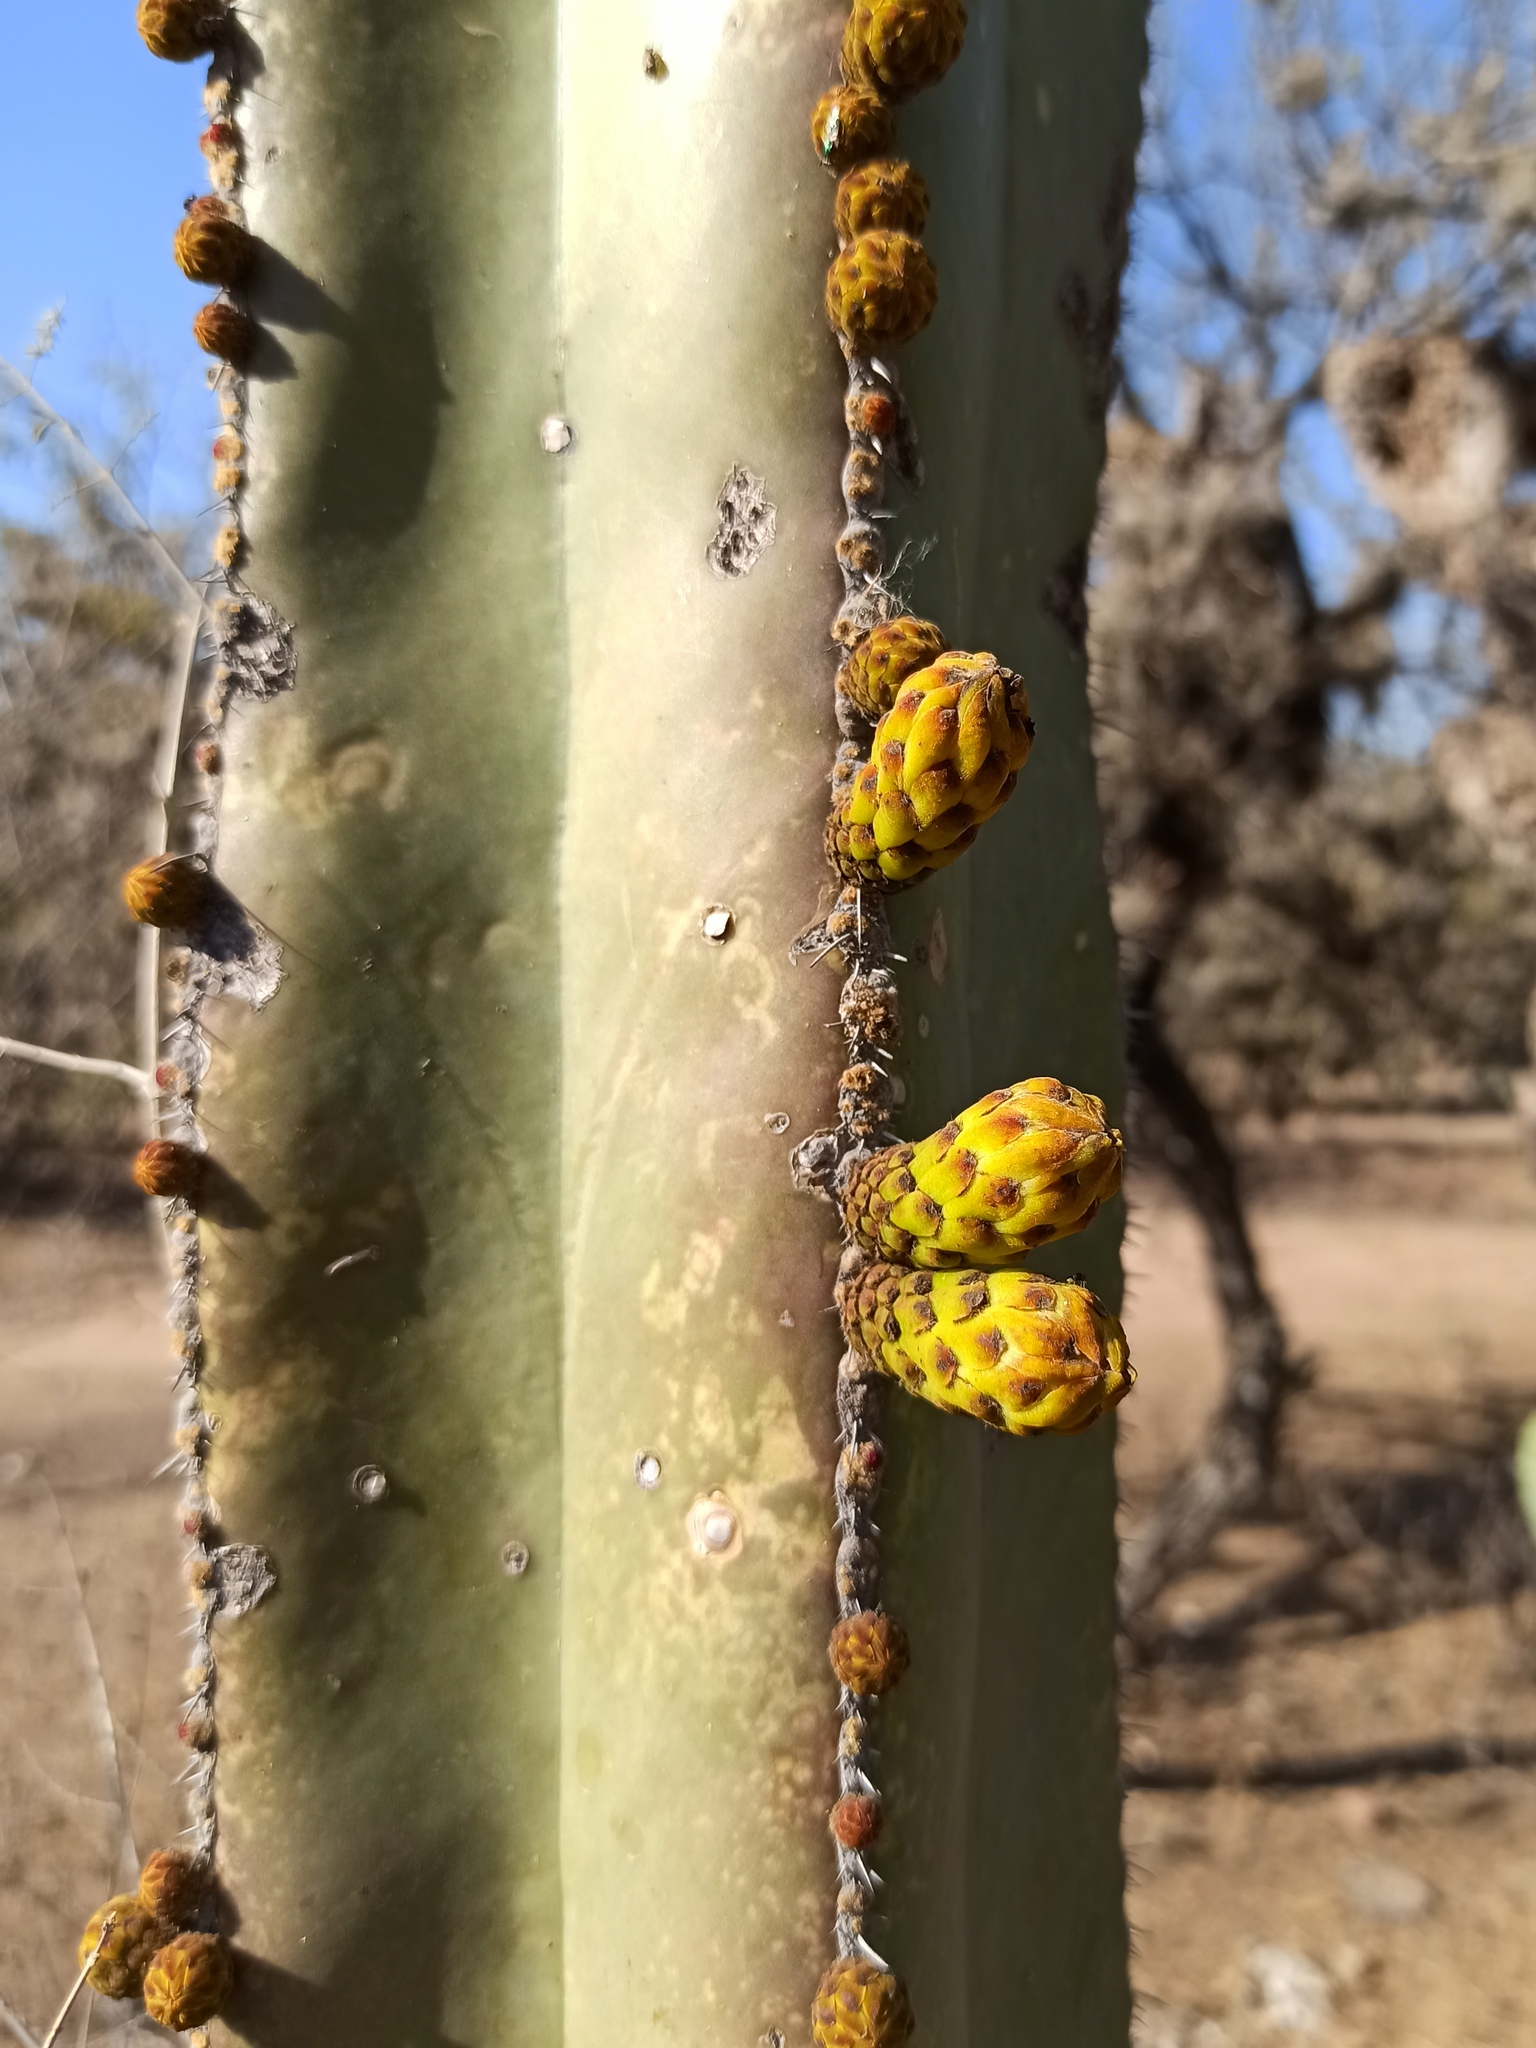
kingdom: Plantae
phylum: Tracheophyta
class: Magnoliopsida
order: Caryophyllales
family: Cactaceae
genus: Marginatocereus
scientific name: Marginatocereus marginatus
